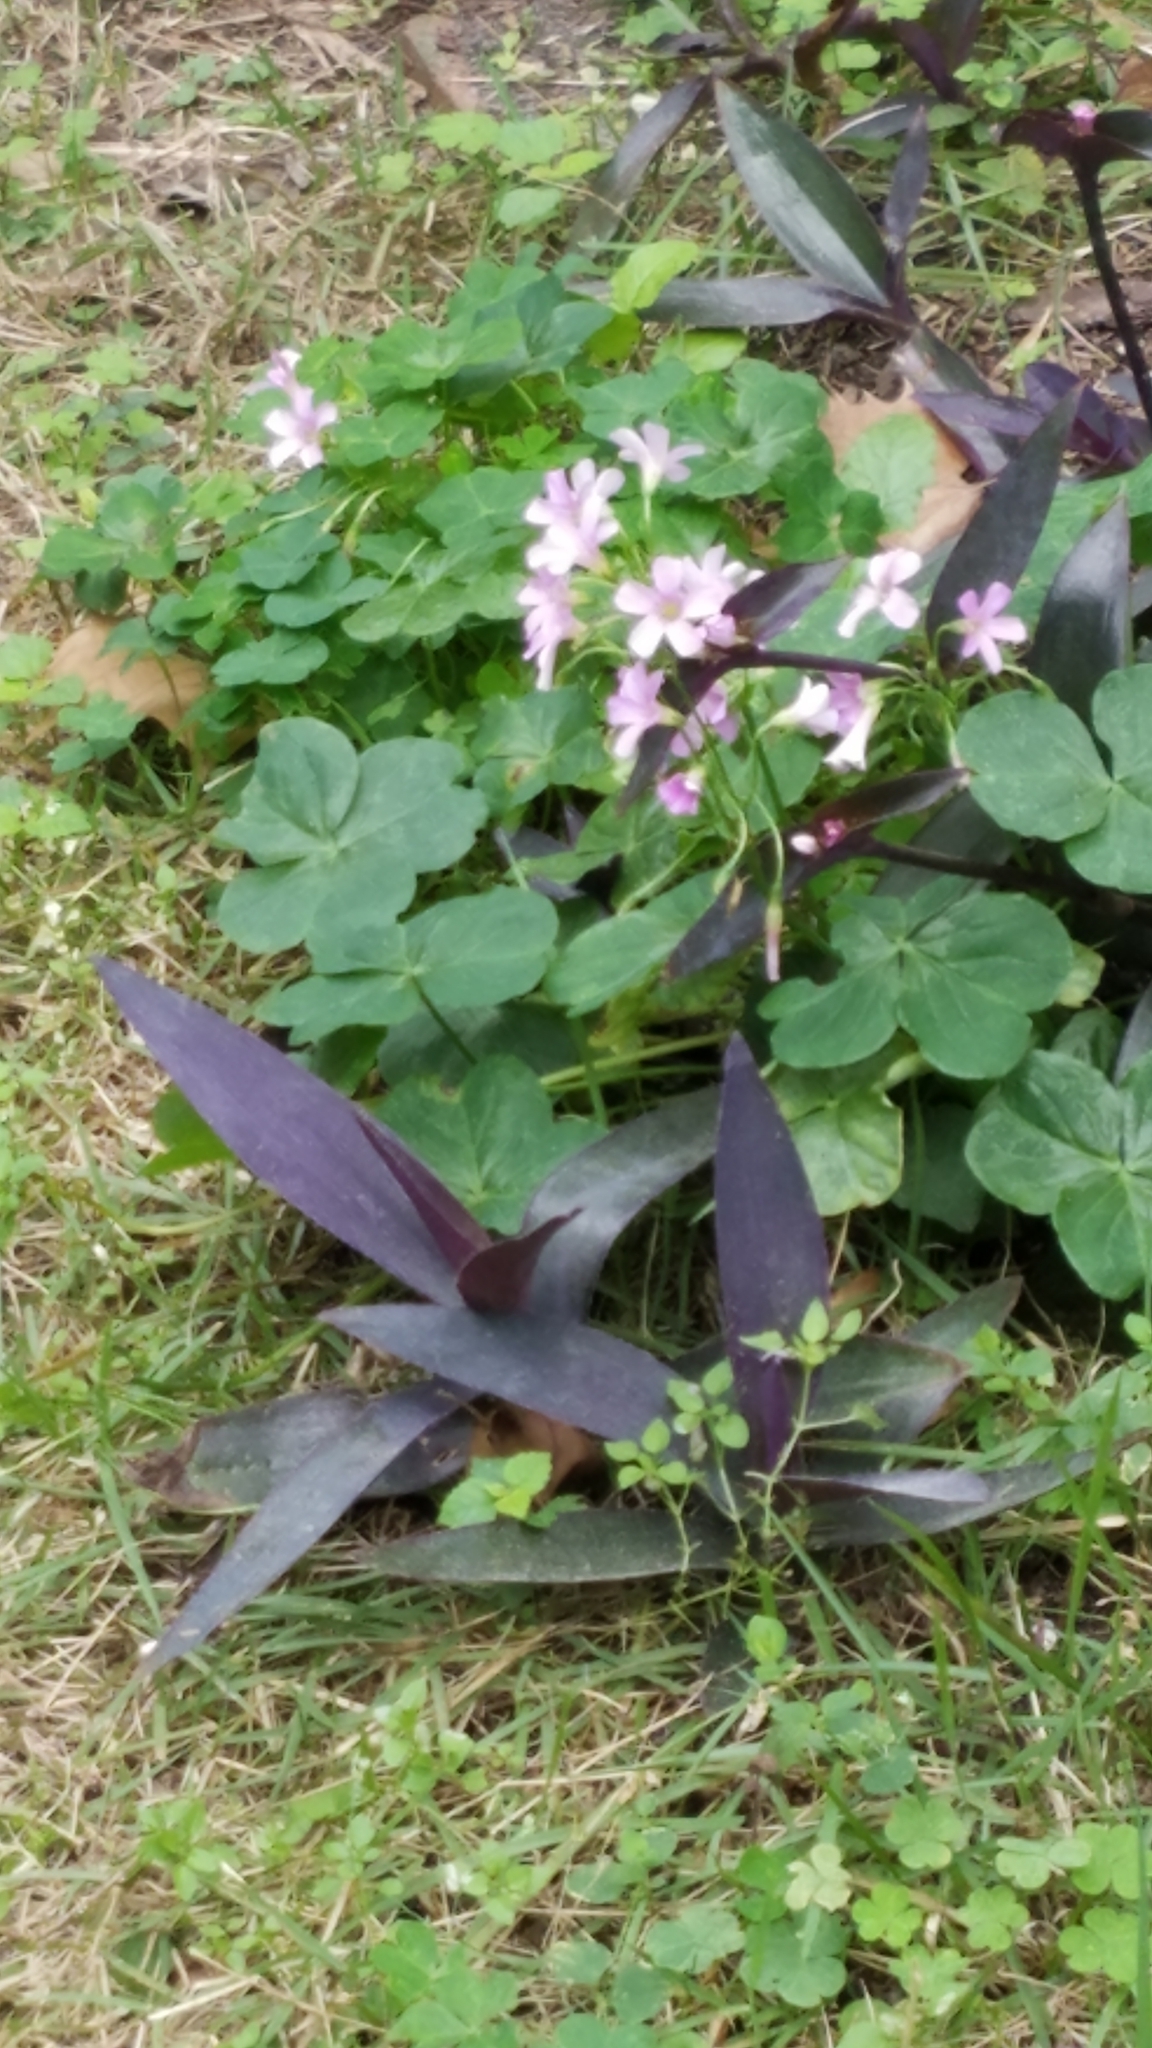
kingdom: Plantae
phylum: Tracheophyta
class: Magnoliopsida
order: Oxalidales
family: Oxalidaceae
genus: Oxalis
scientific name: Oxalis debilis
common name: Large-flowered pink-sorrel
